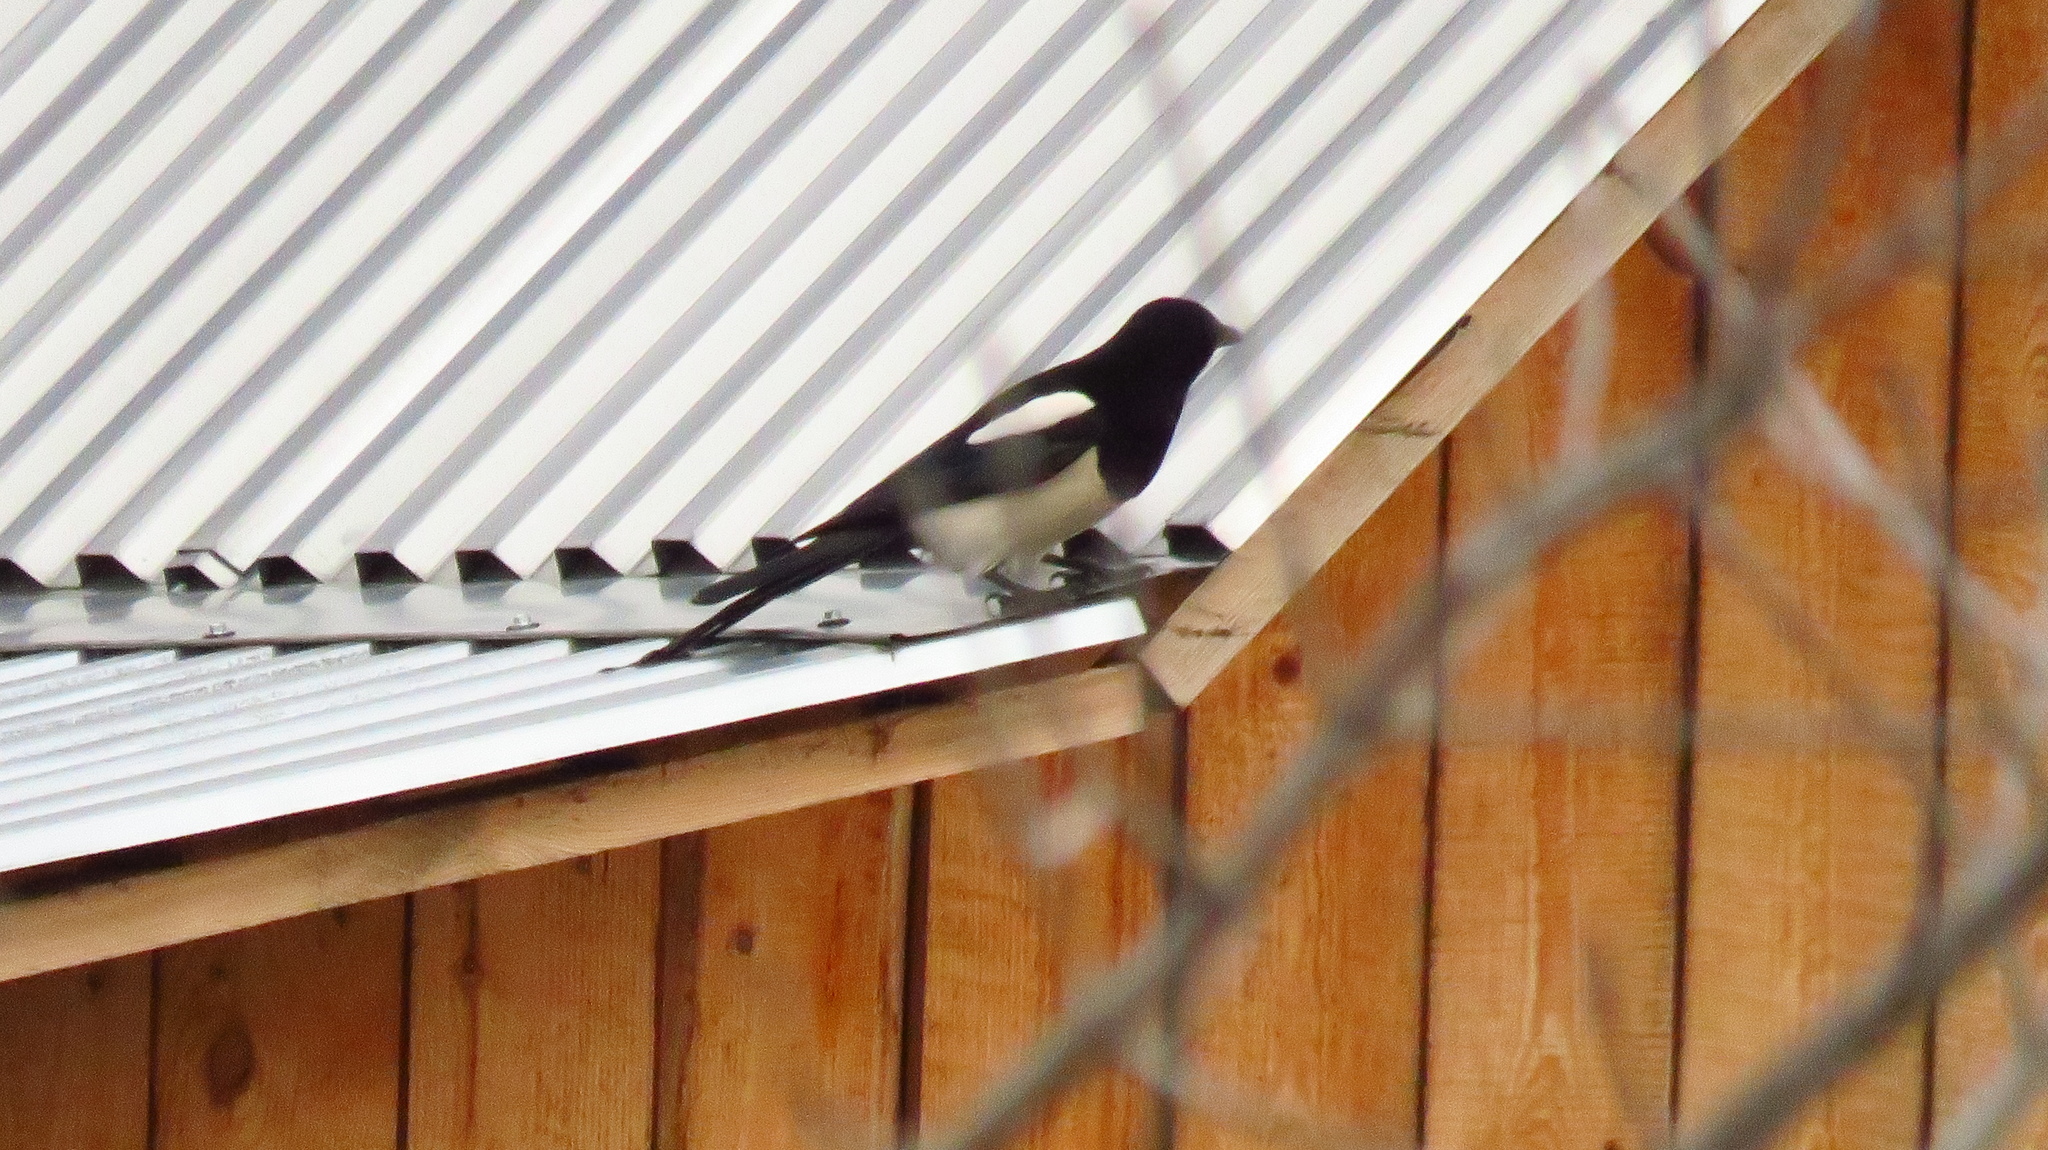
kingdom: Animalia
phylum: Chordata
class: Aves
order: Passeriformes
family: Corvidae
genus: Pica
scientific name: Pica pica
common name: Eurasian magpie
